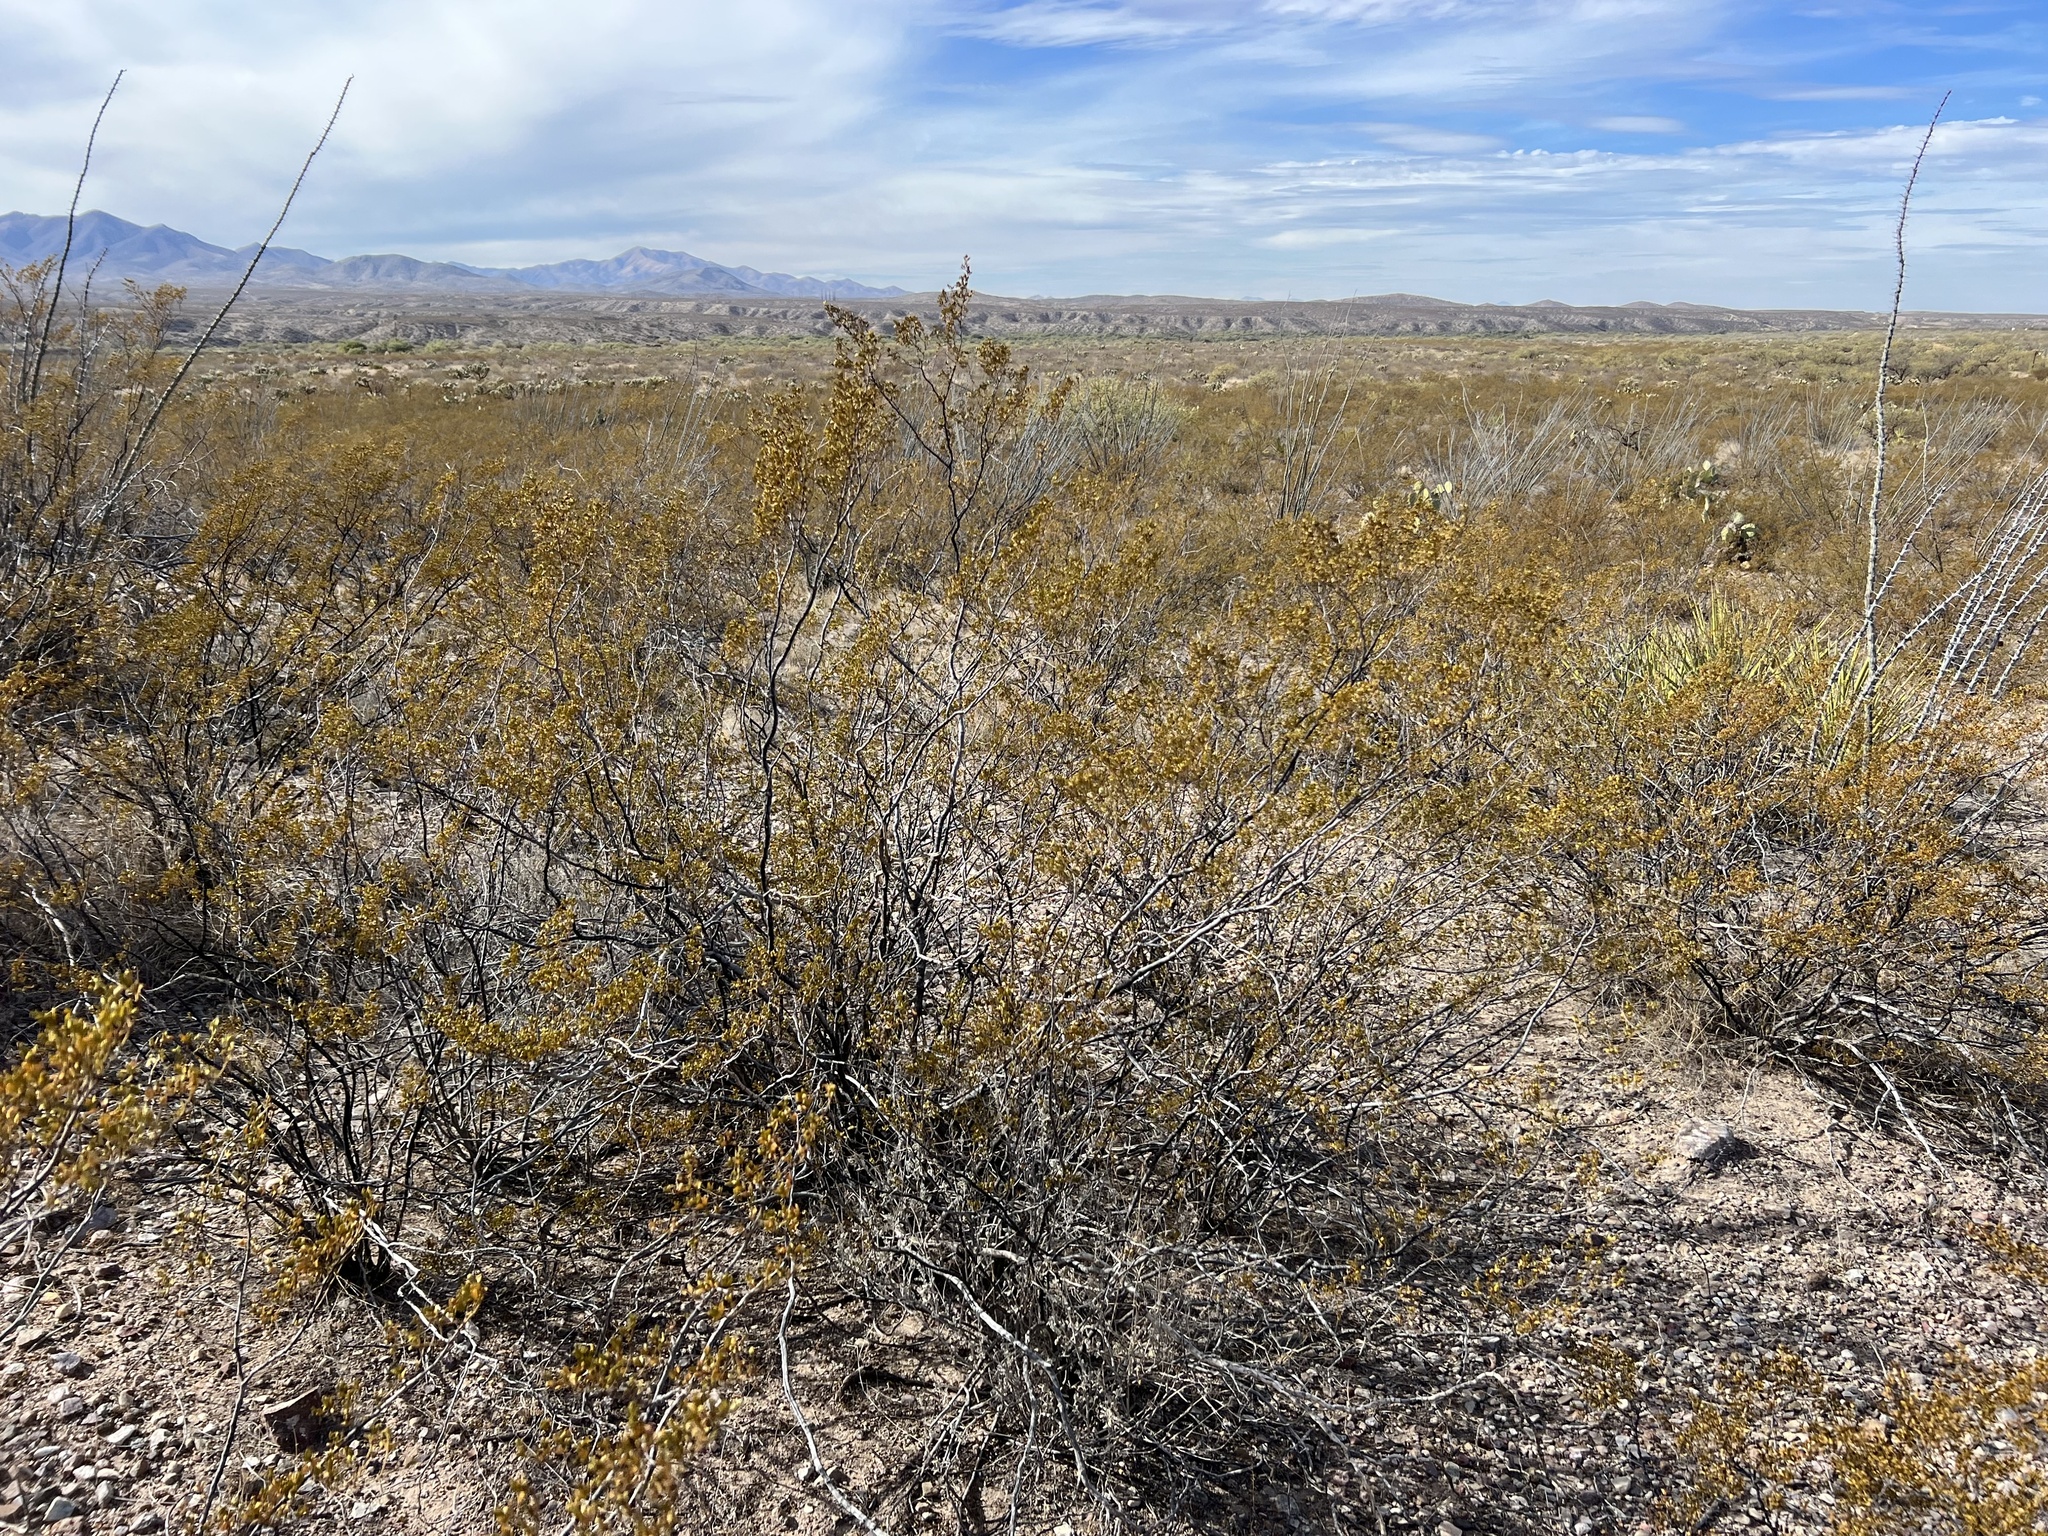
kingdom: Plantae
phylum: Tracheophyta
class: Magnoliopsida
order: Zygophyllales
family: Zygophyllaceae
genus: Larrea
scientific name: Larrea tridentata
